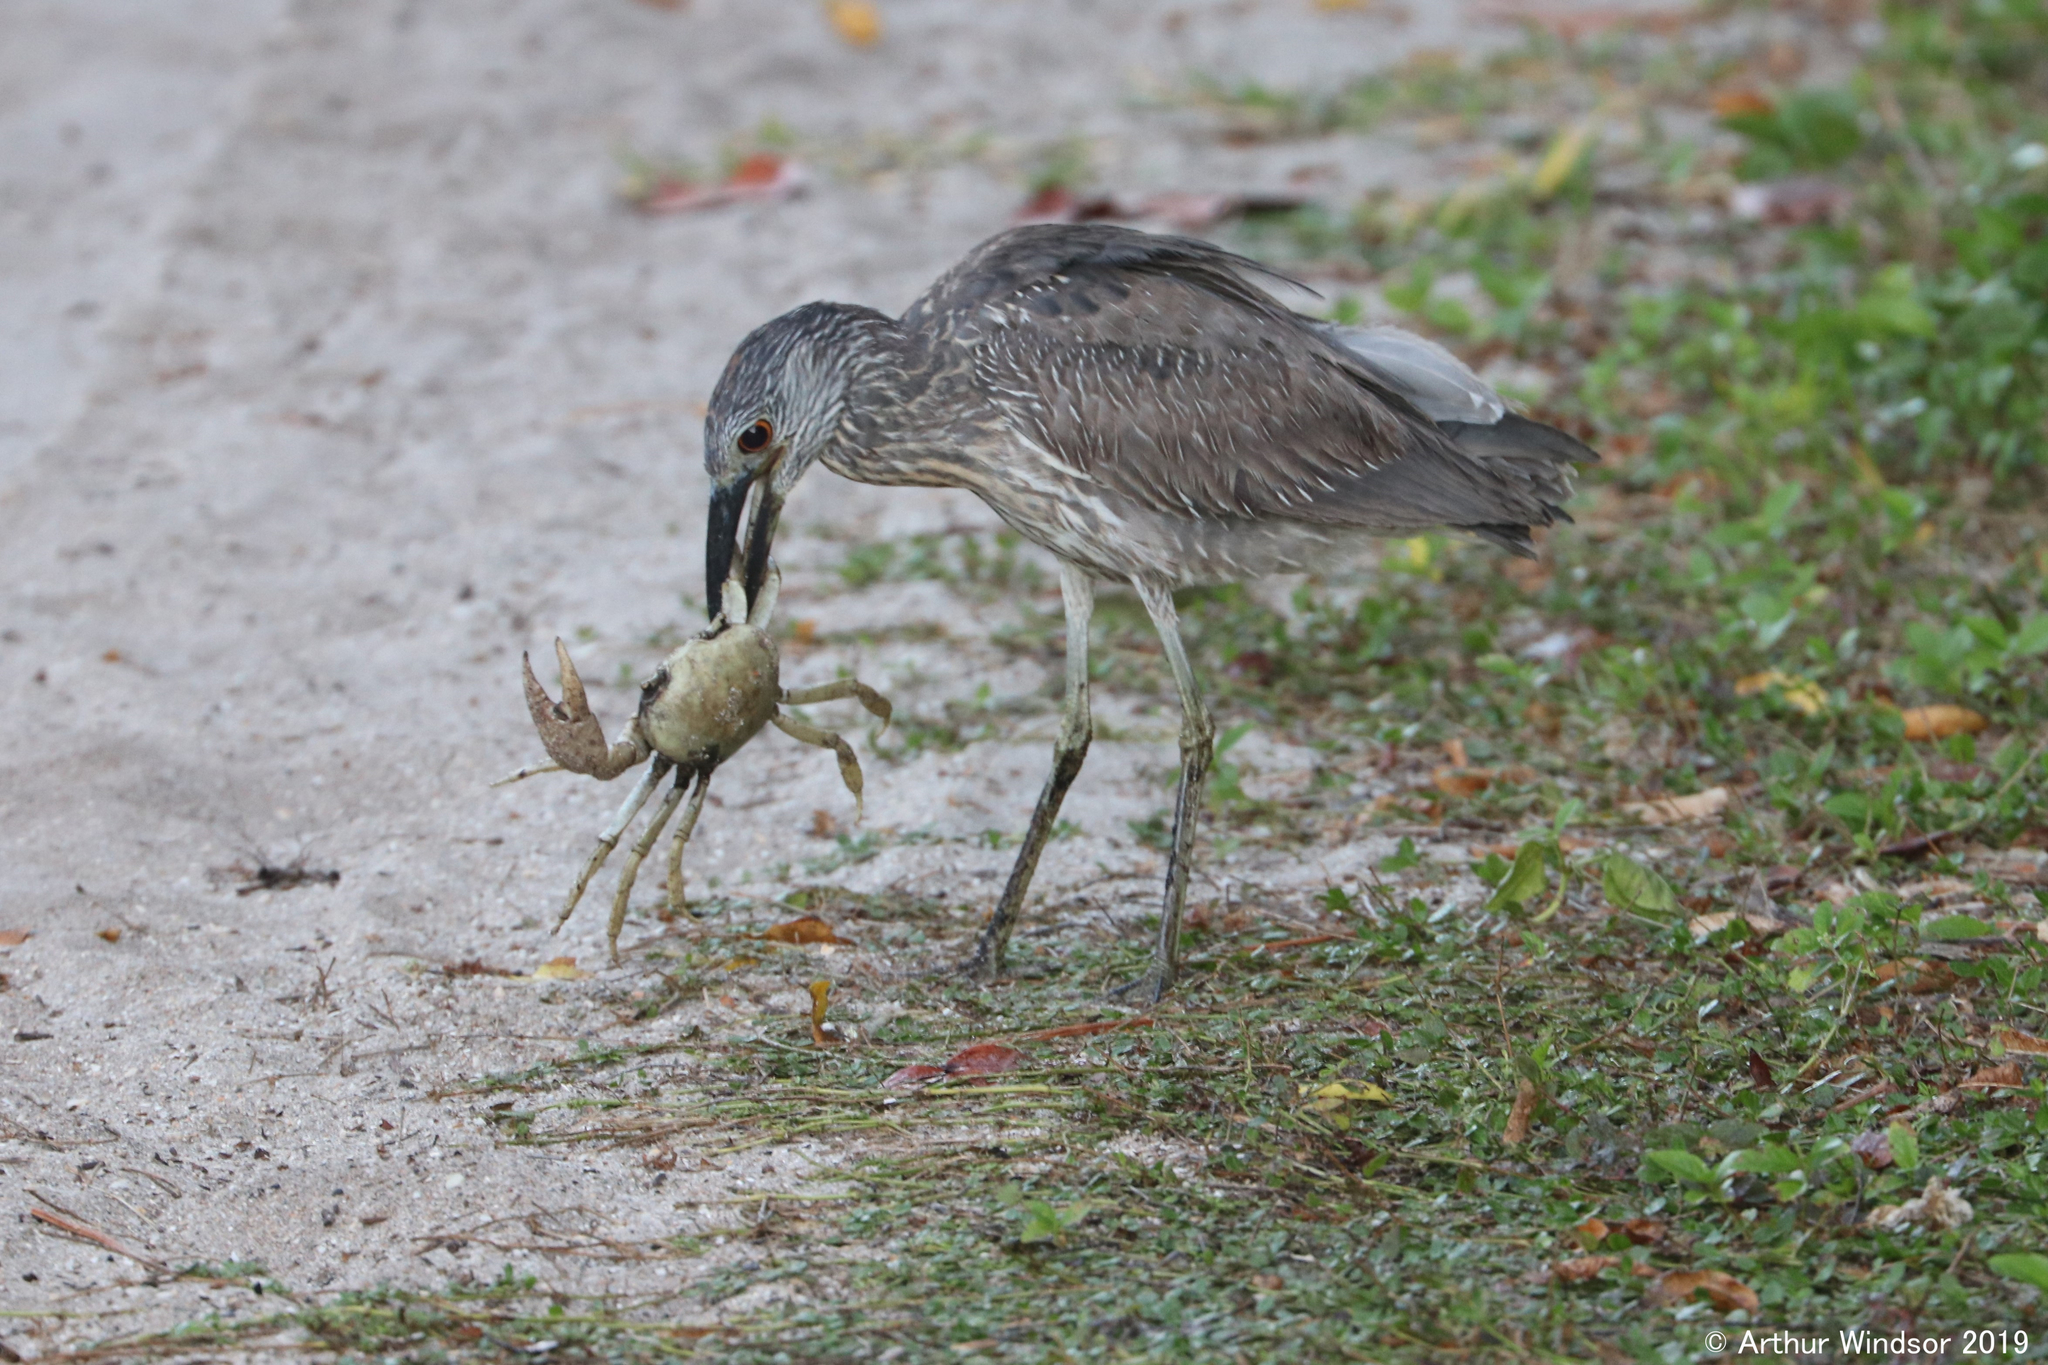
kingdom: Animalia
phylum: Chordata
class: Aves
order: Pelecaniformes
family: Ardeidae
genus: Nyctanassa
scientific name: Nyctanassa violacea
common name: Yellow-crowned night heron
